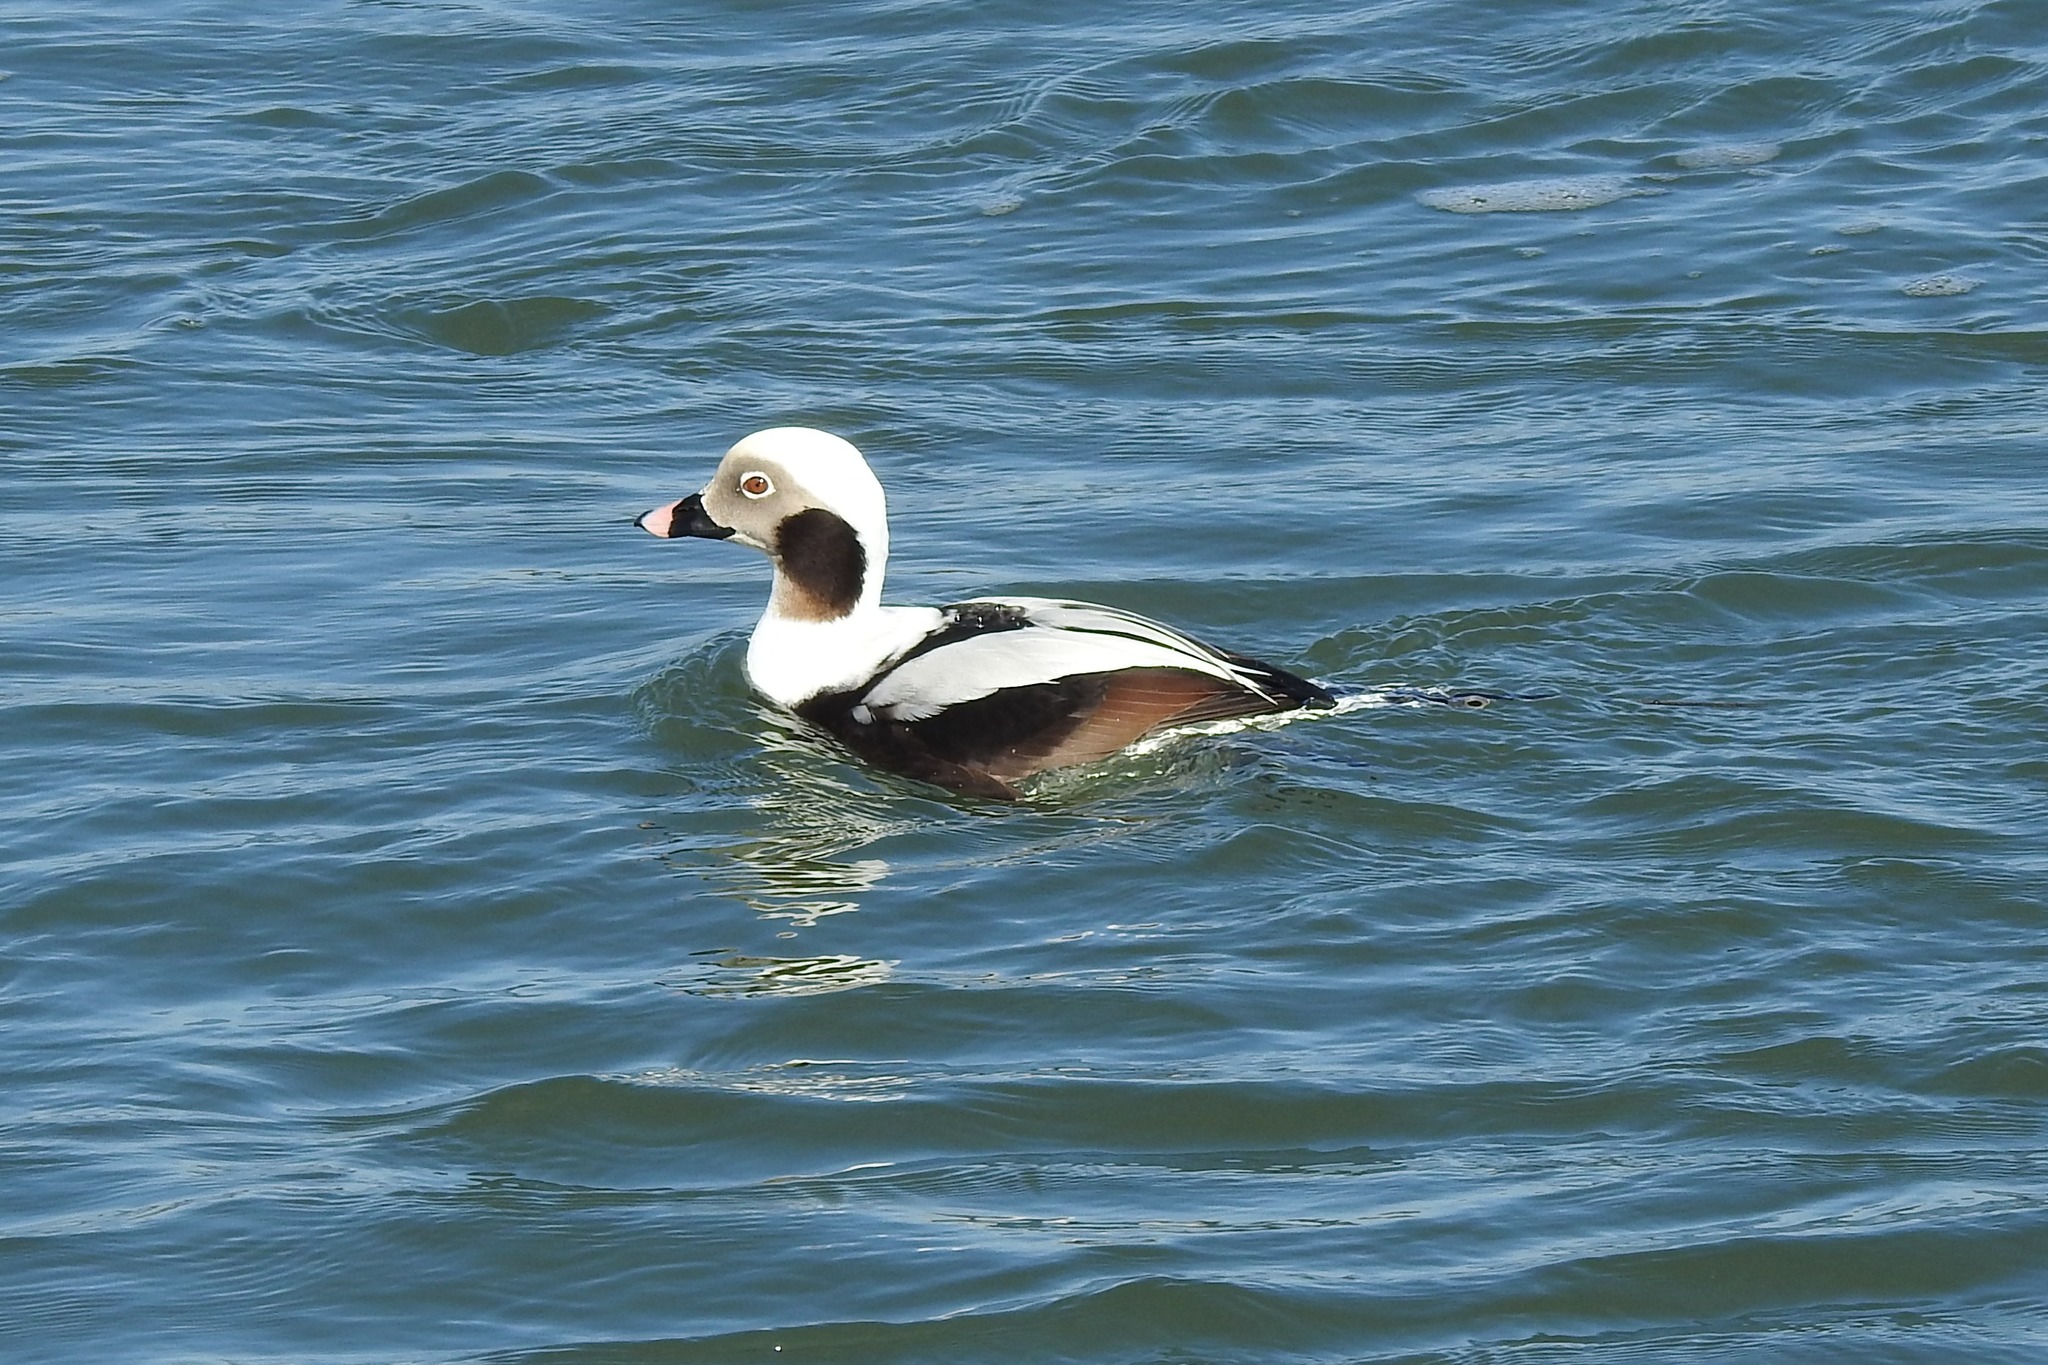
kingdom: Animalia
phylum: Chordata
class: Aves
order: Anseriformes
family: Anatidae
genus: Clangula
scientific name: Clangula hyemalis
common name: Long-tailed duck
